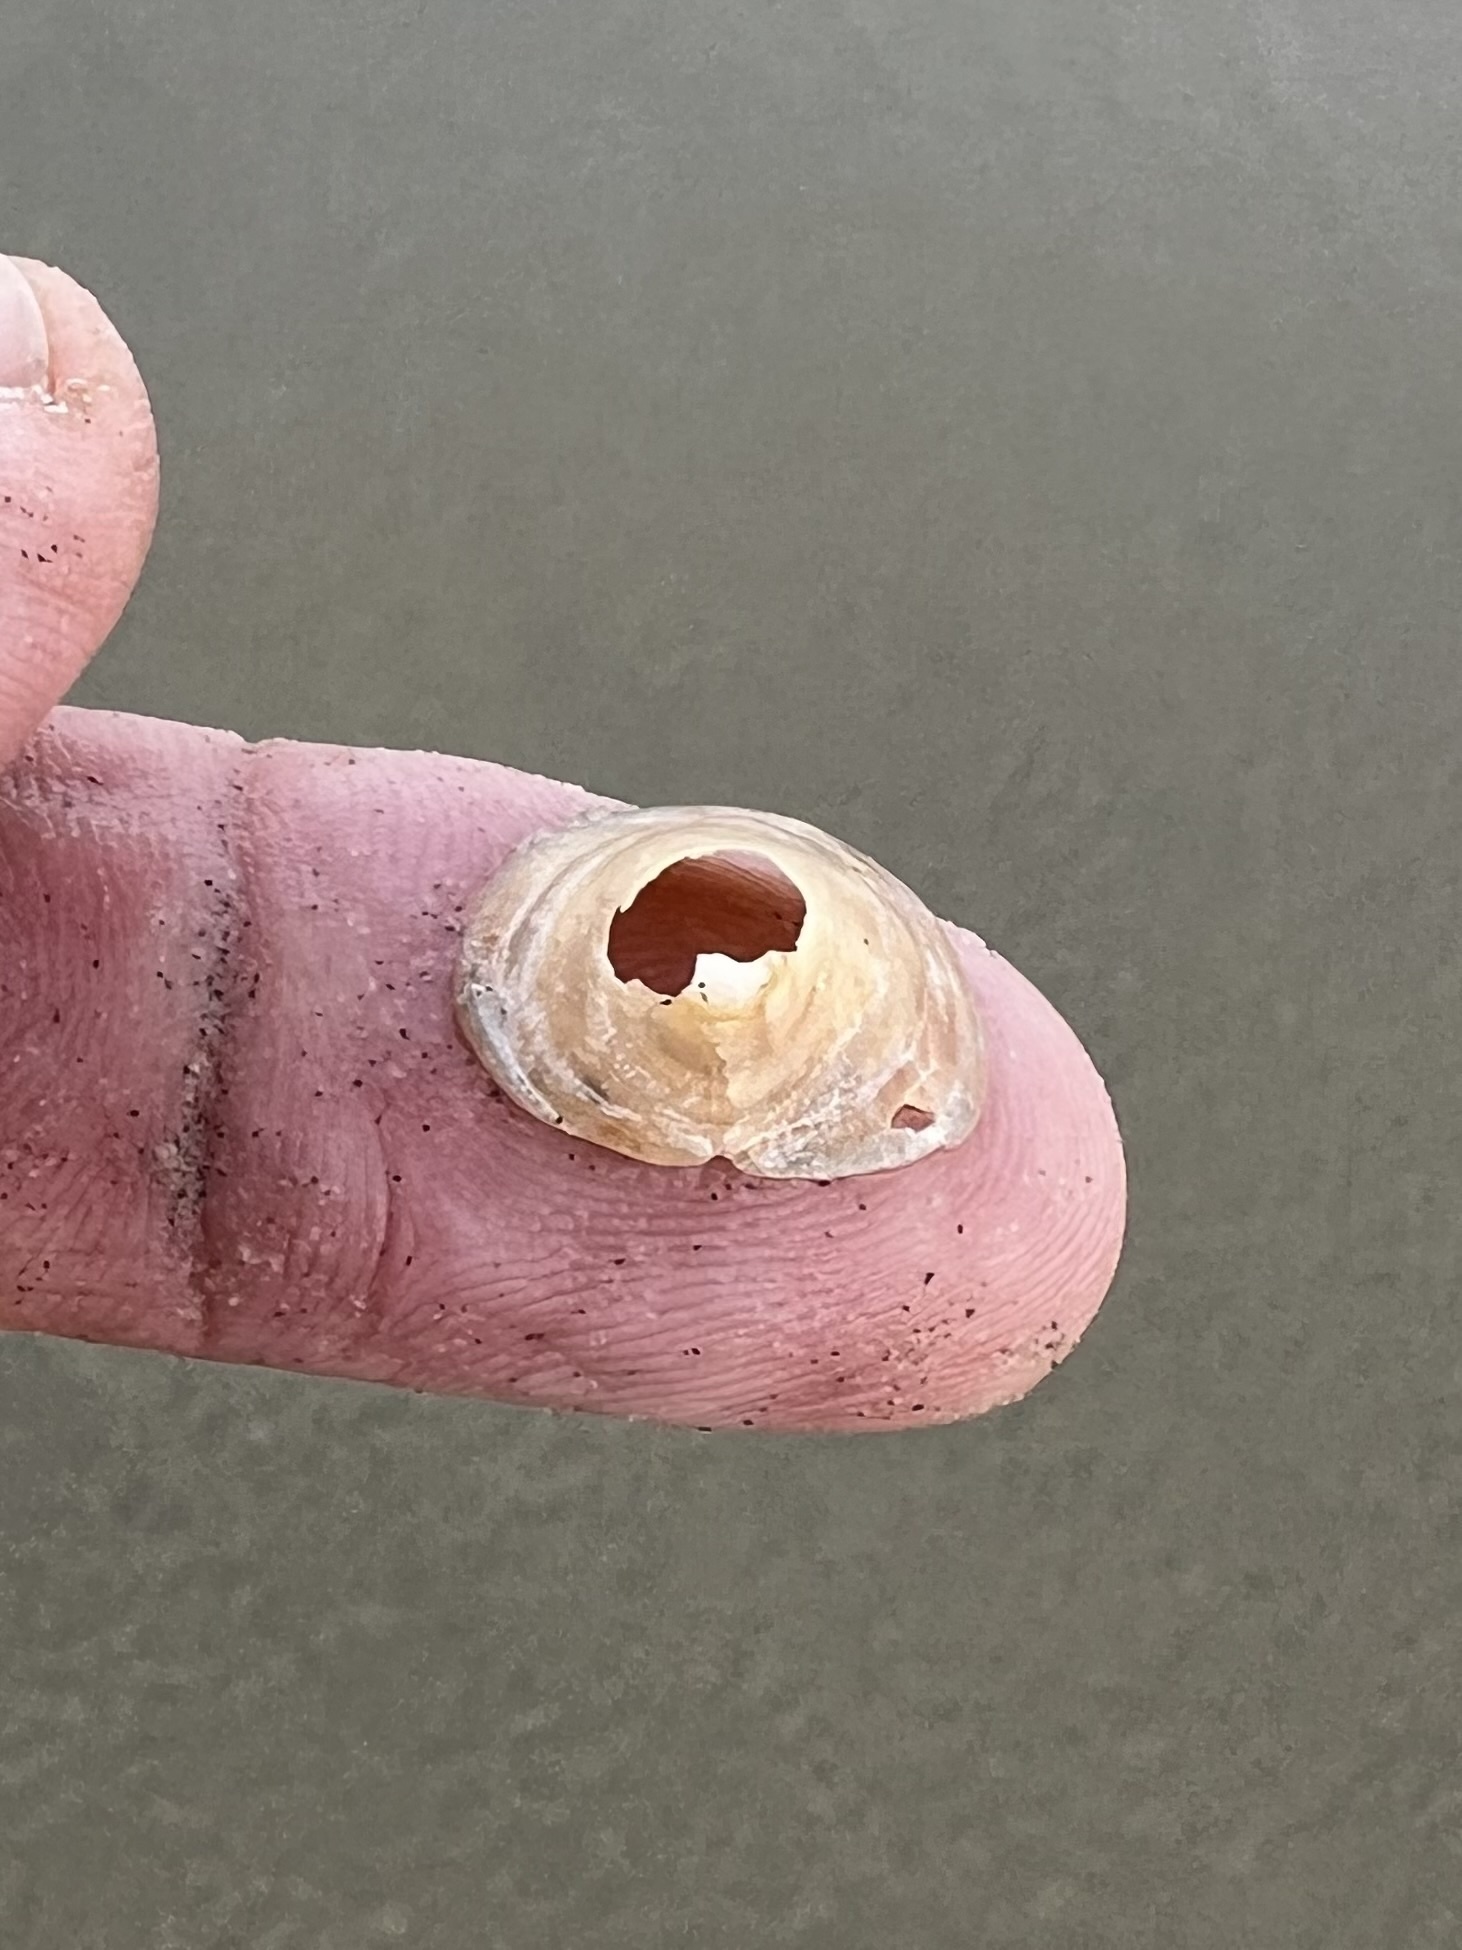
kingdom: Animalia
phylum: Mollusca
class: Gastropoda
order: Littorinimorpha
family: Calyptraeidae
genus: Crucibulum
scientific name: Crucibulum spinosum
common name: Spiny cup-and-saucer
